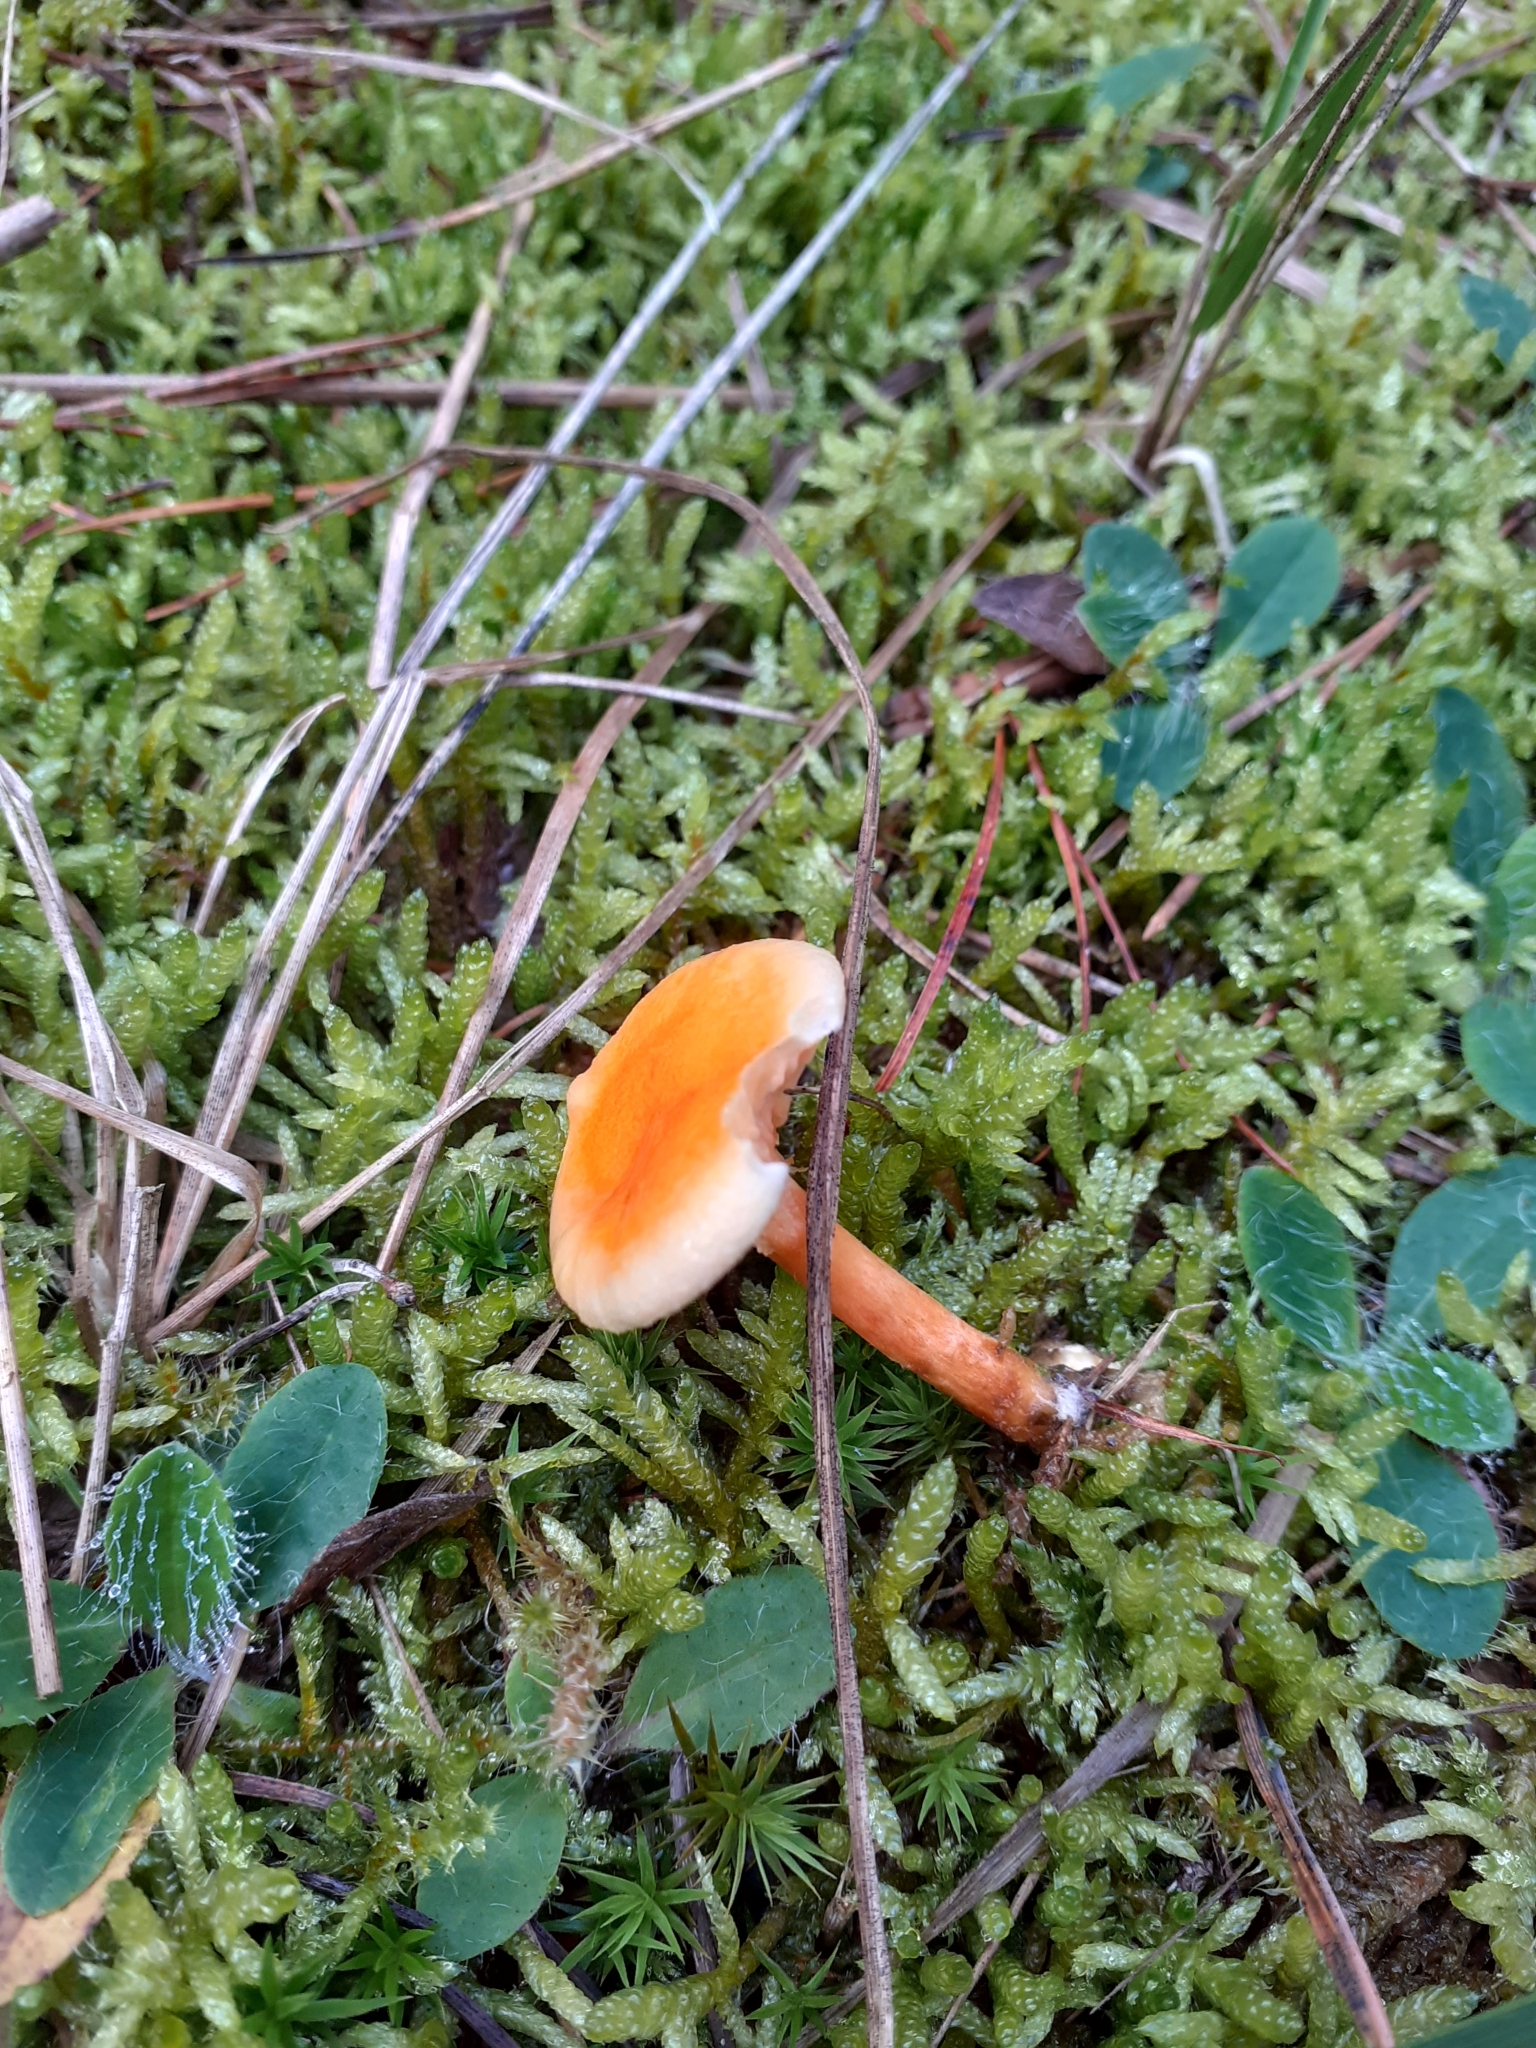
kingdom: Fungi
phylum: Basidiomycota
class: Agaricomycetes
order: Boletales
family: Hygrophoropsidaceae
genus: Hygrophoropsis
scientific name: Hygrophoropsis aurantiaca
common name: False chanterelle
